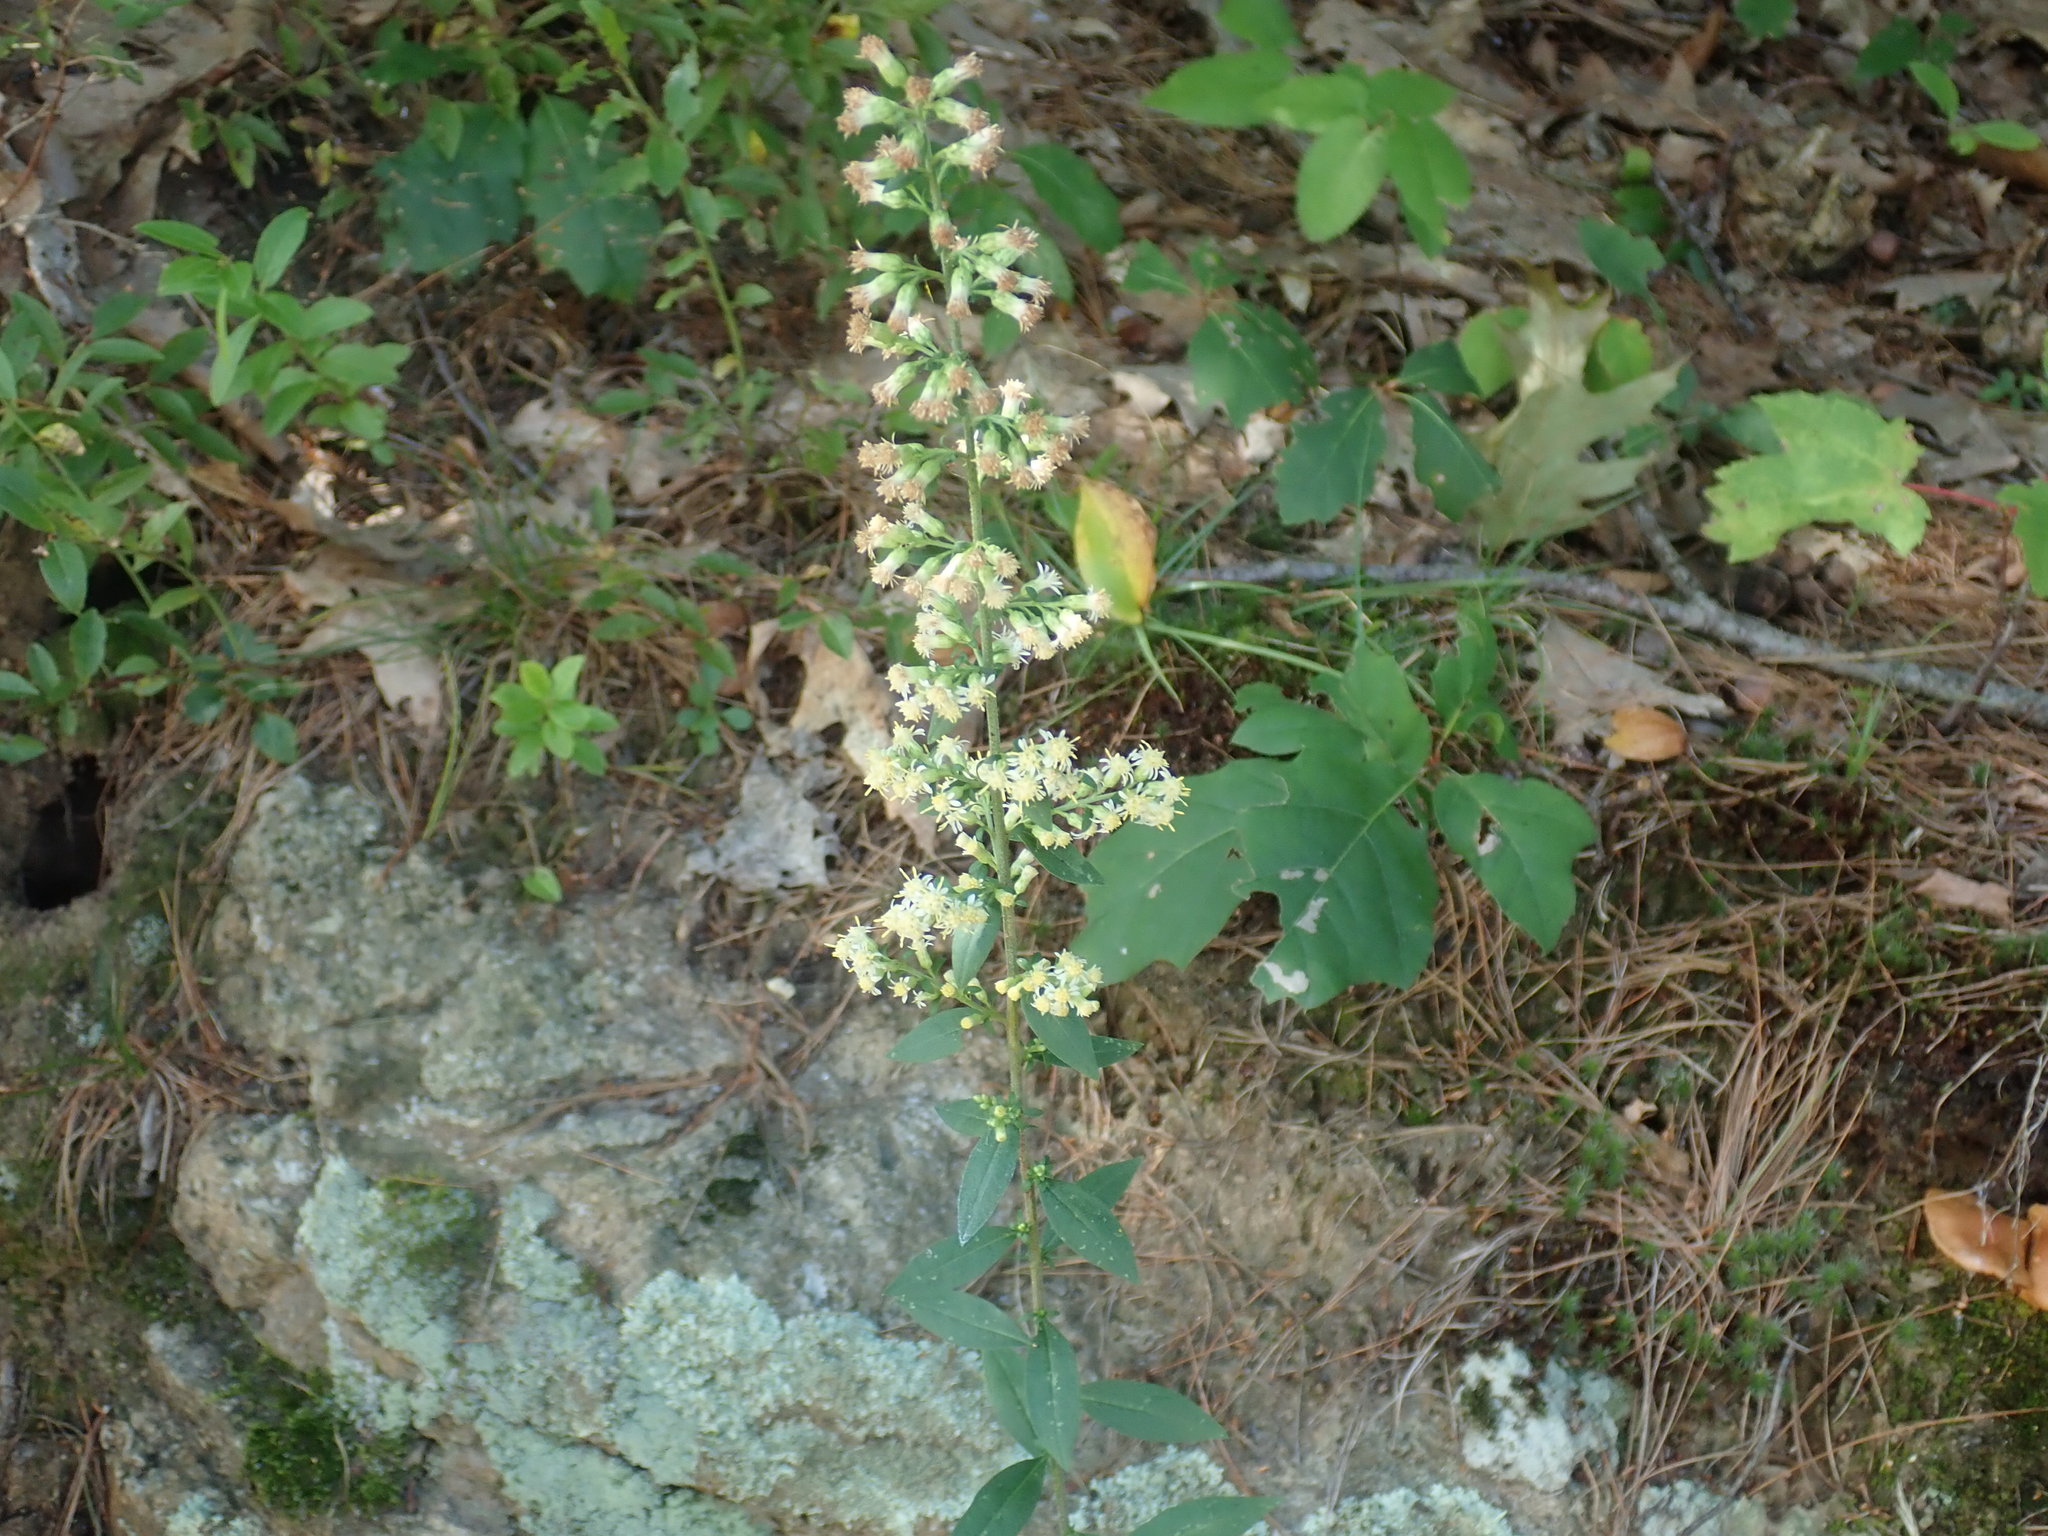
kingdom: Plantae
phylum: Tracheophyta
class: Magnoliopsida
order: Asterales
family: Asteraceae
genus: Solidago
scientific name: Solidago bicolor
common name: Silverrod
